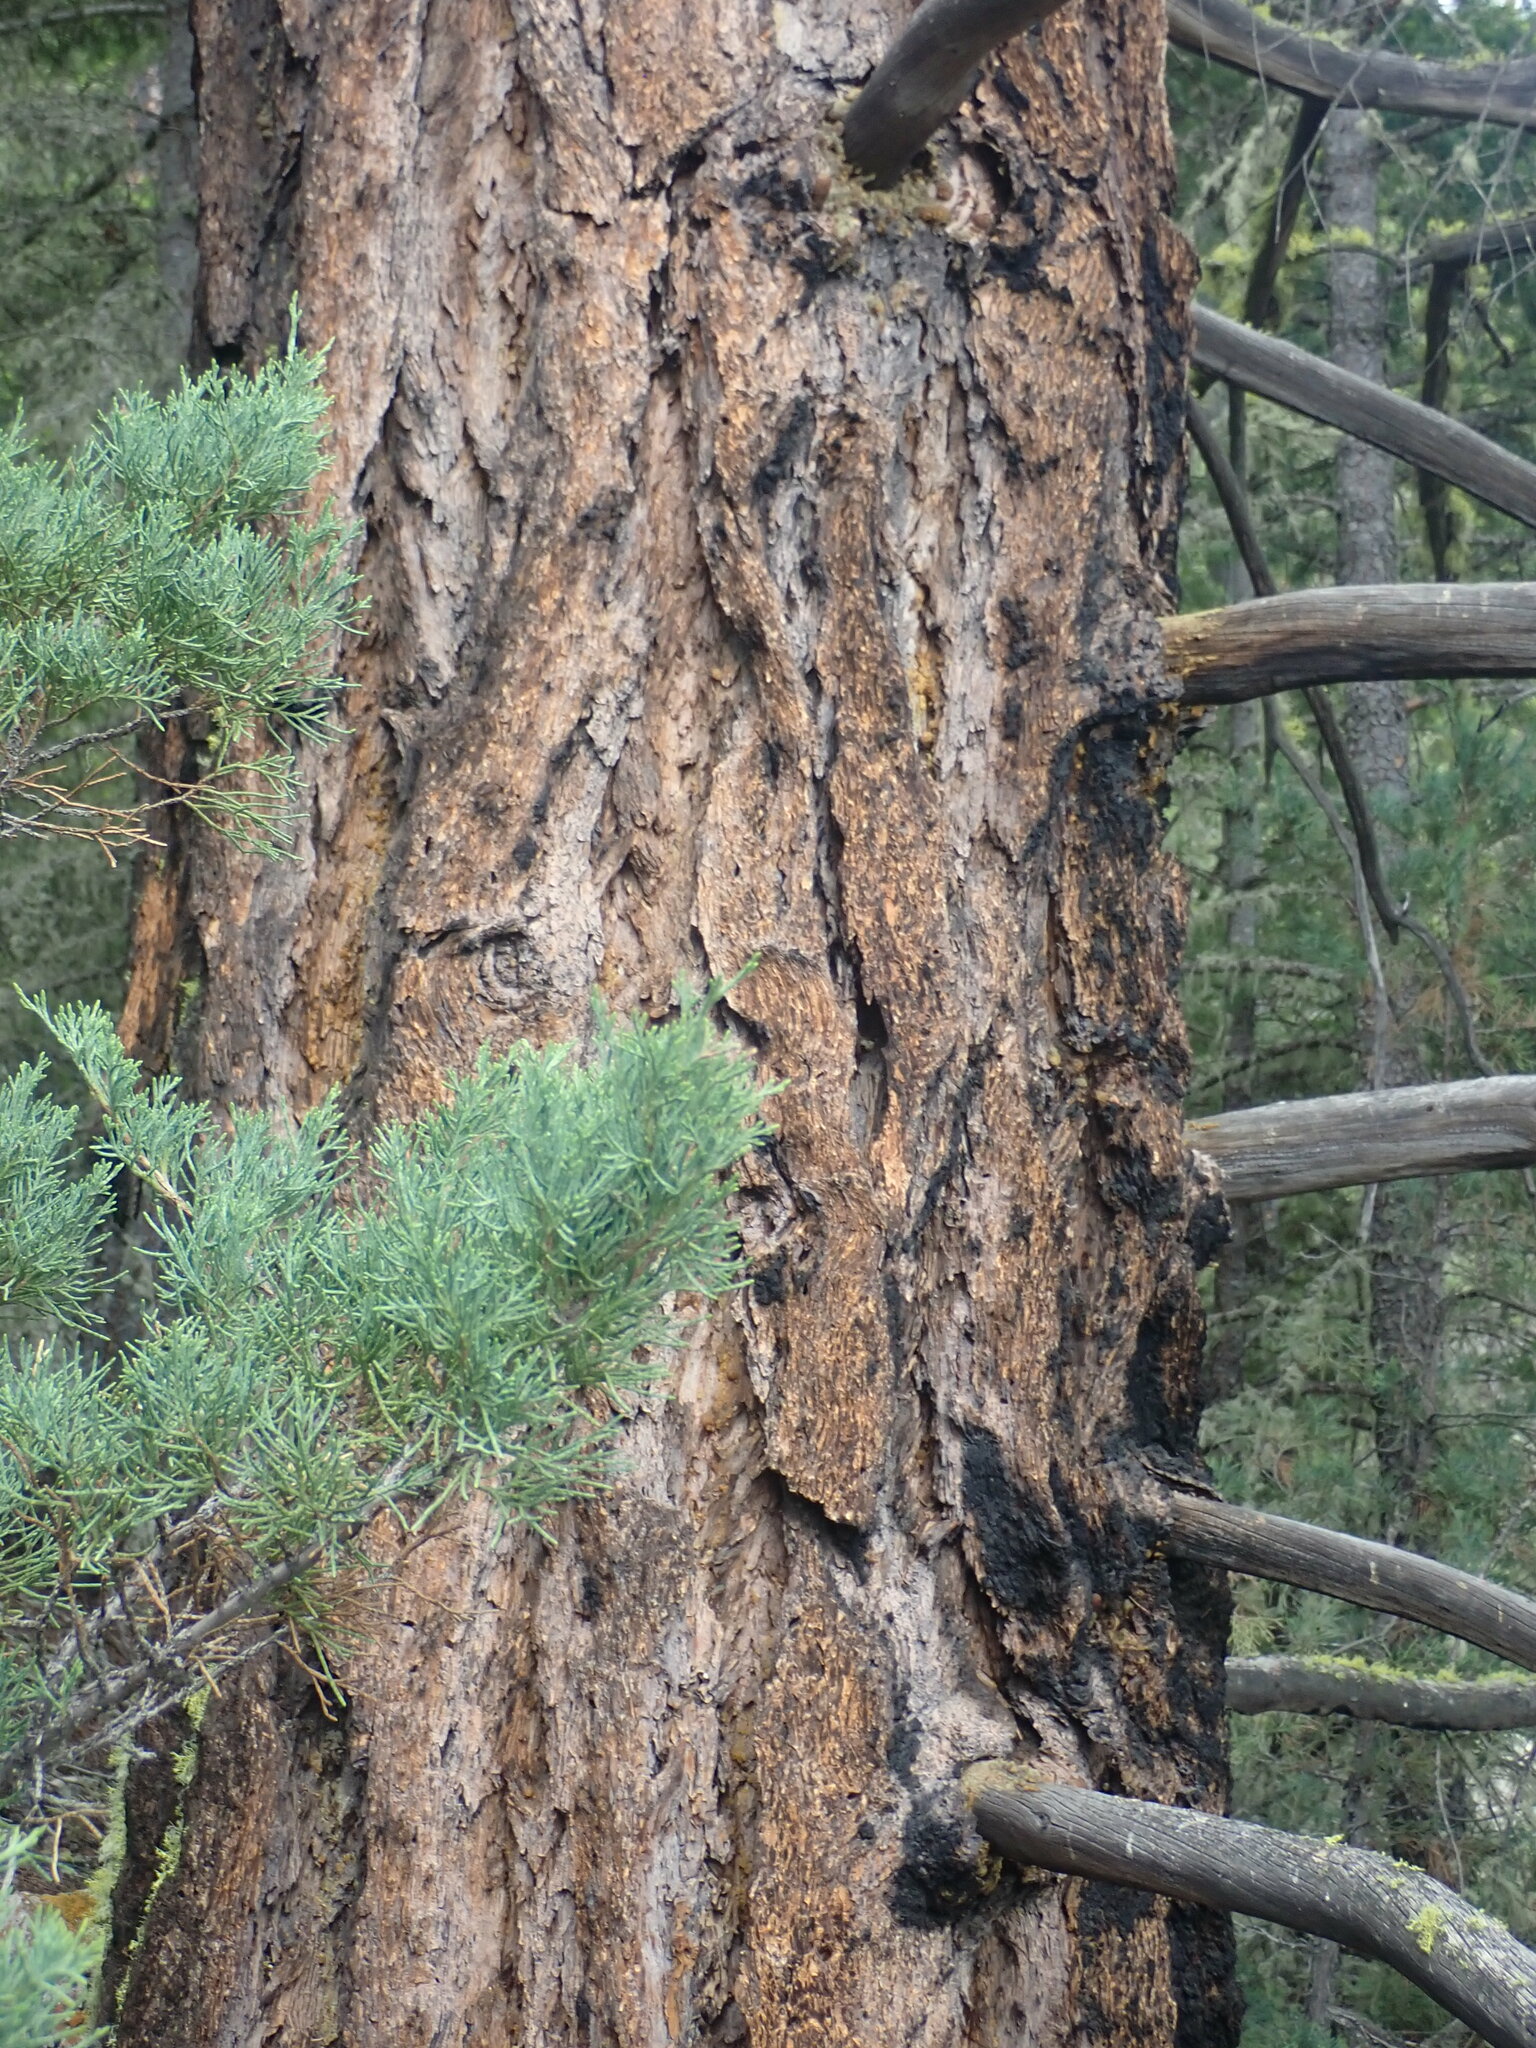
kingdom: Plantae
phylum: Tracheophyta
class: Pinopsida
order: Pinales
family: Pinaceae
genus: Pseudotsuga
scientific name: Pseudotsuga menziesii
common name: Douglas fir
